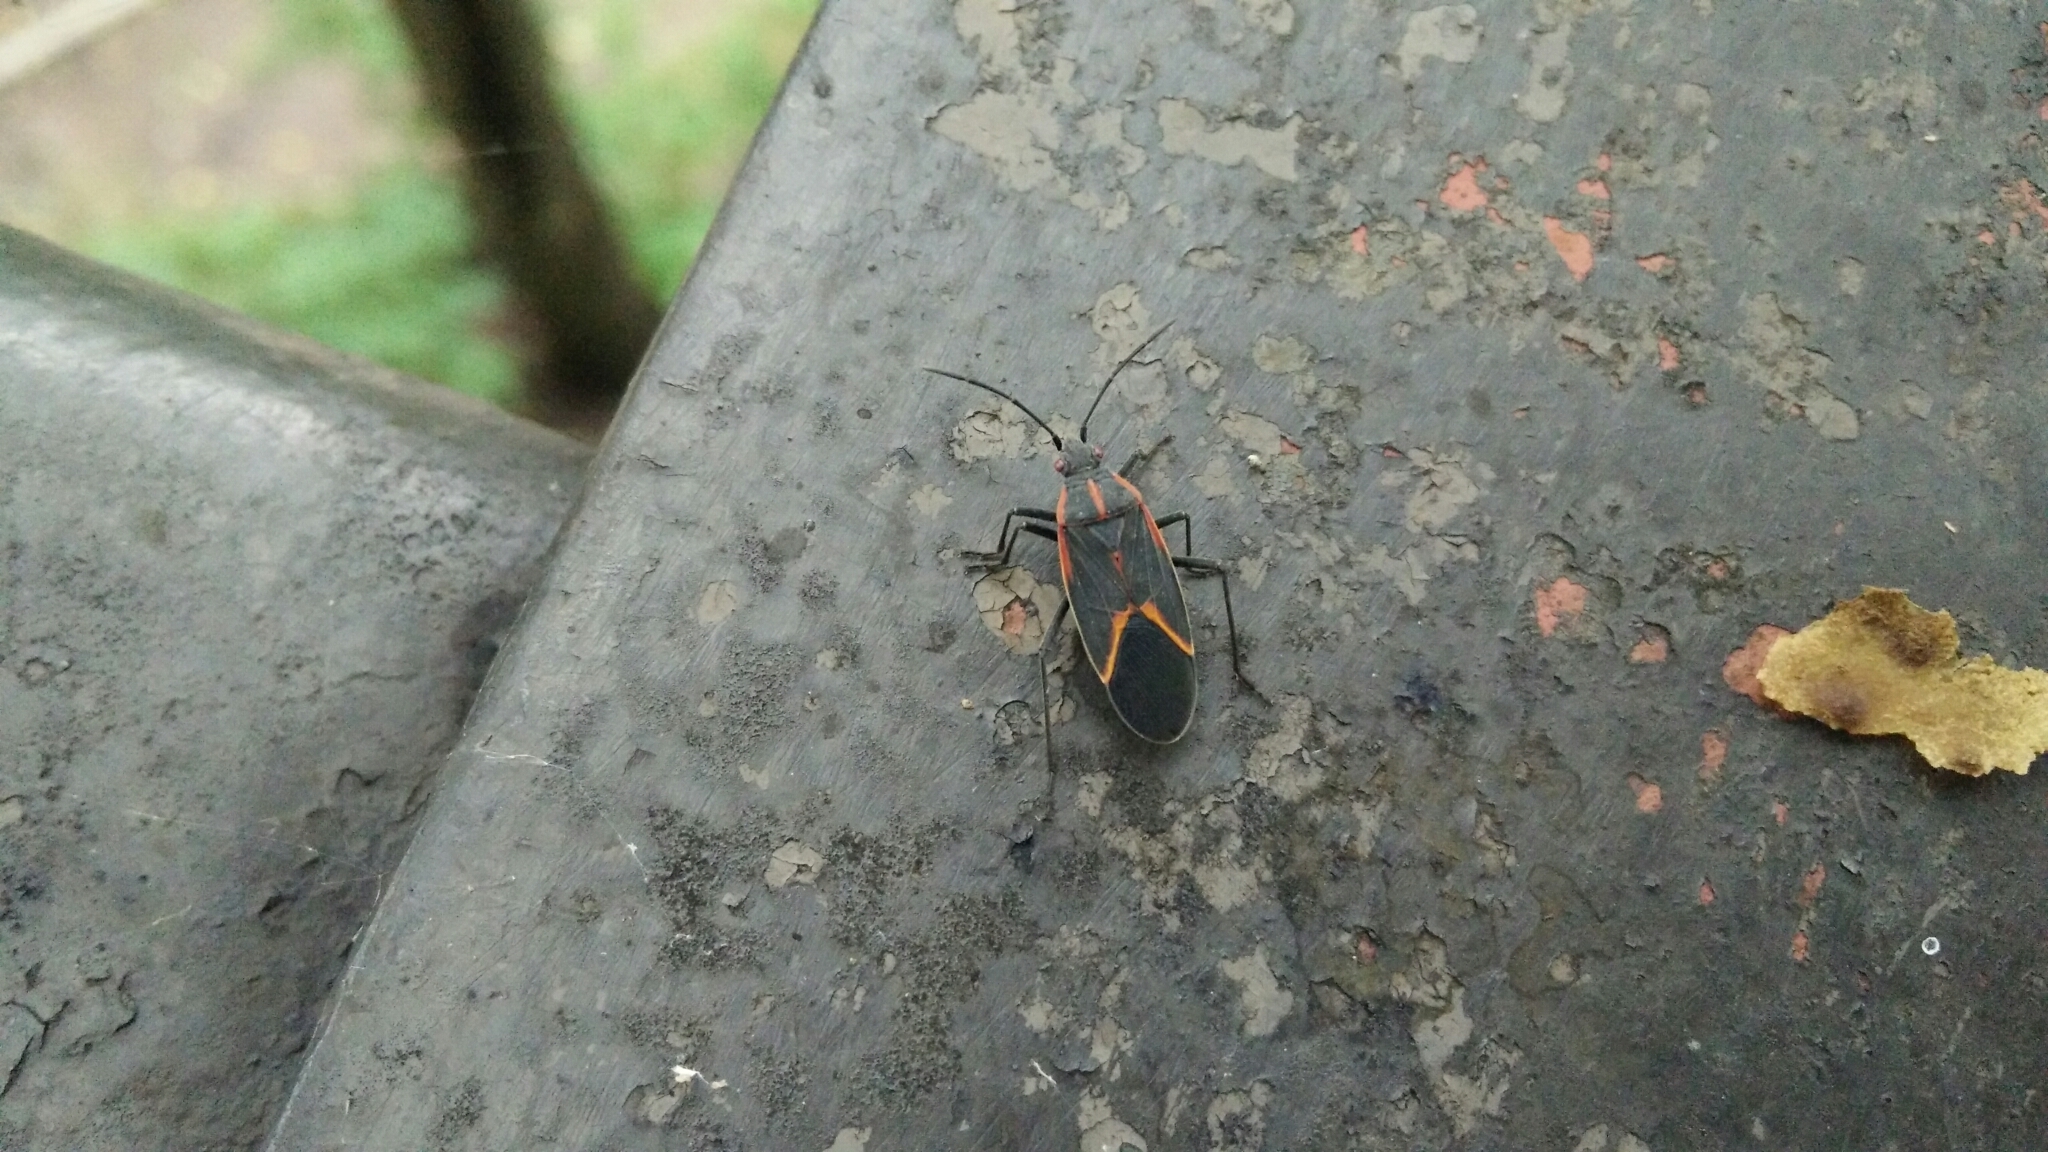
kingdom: Animalia
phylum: Arthropoda
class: Insecta
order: Hemiptera
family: Rhopalidae
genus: Boisea
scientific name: Boisea trivittata
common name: Boxelder bug
